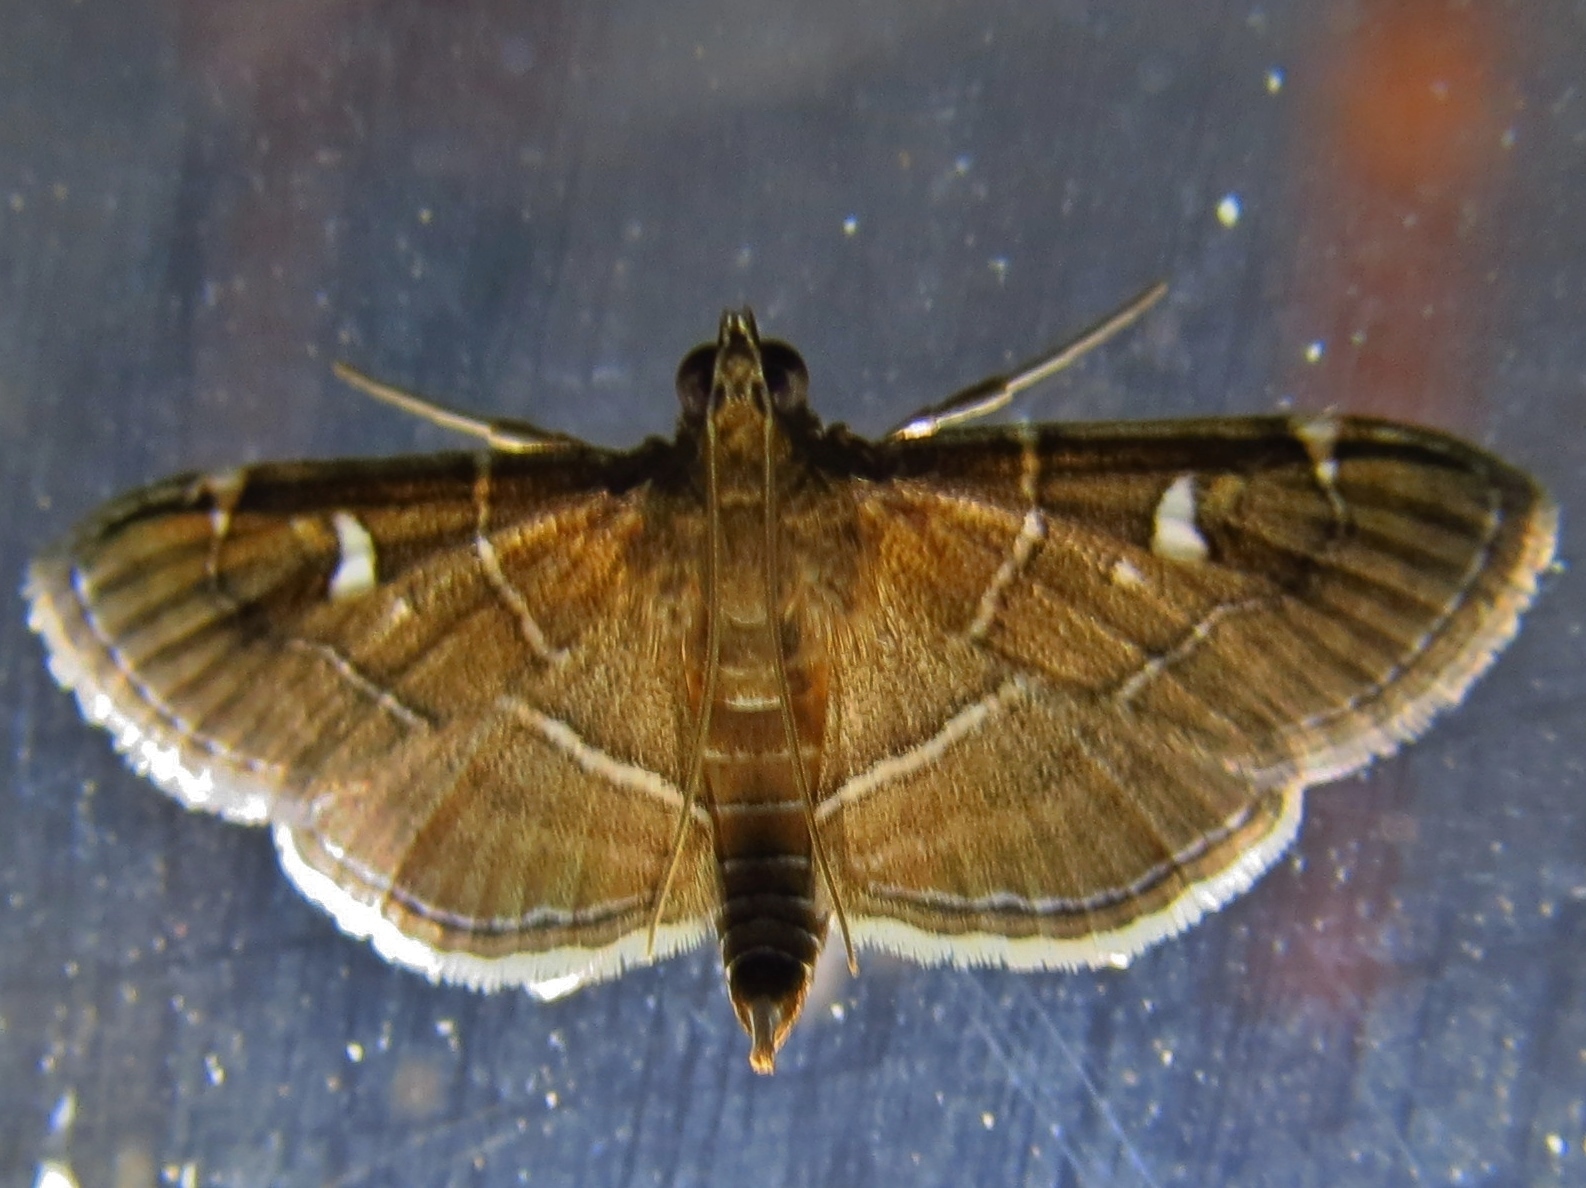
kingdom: Animalia
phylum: Arthropoda
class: Insecta
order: Lepidoptera
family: Crambidae
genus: Lamprosema
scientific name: Lamprosema victoriae
